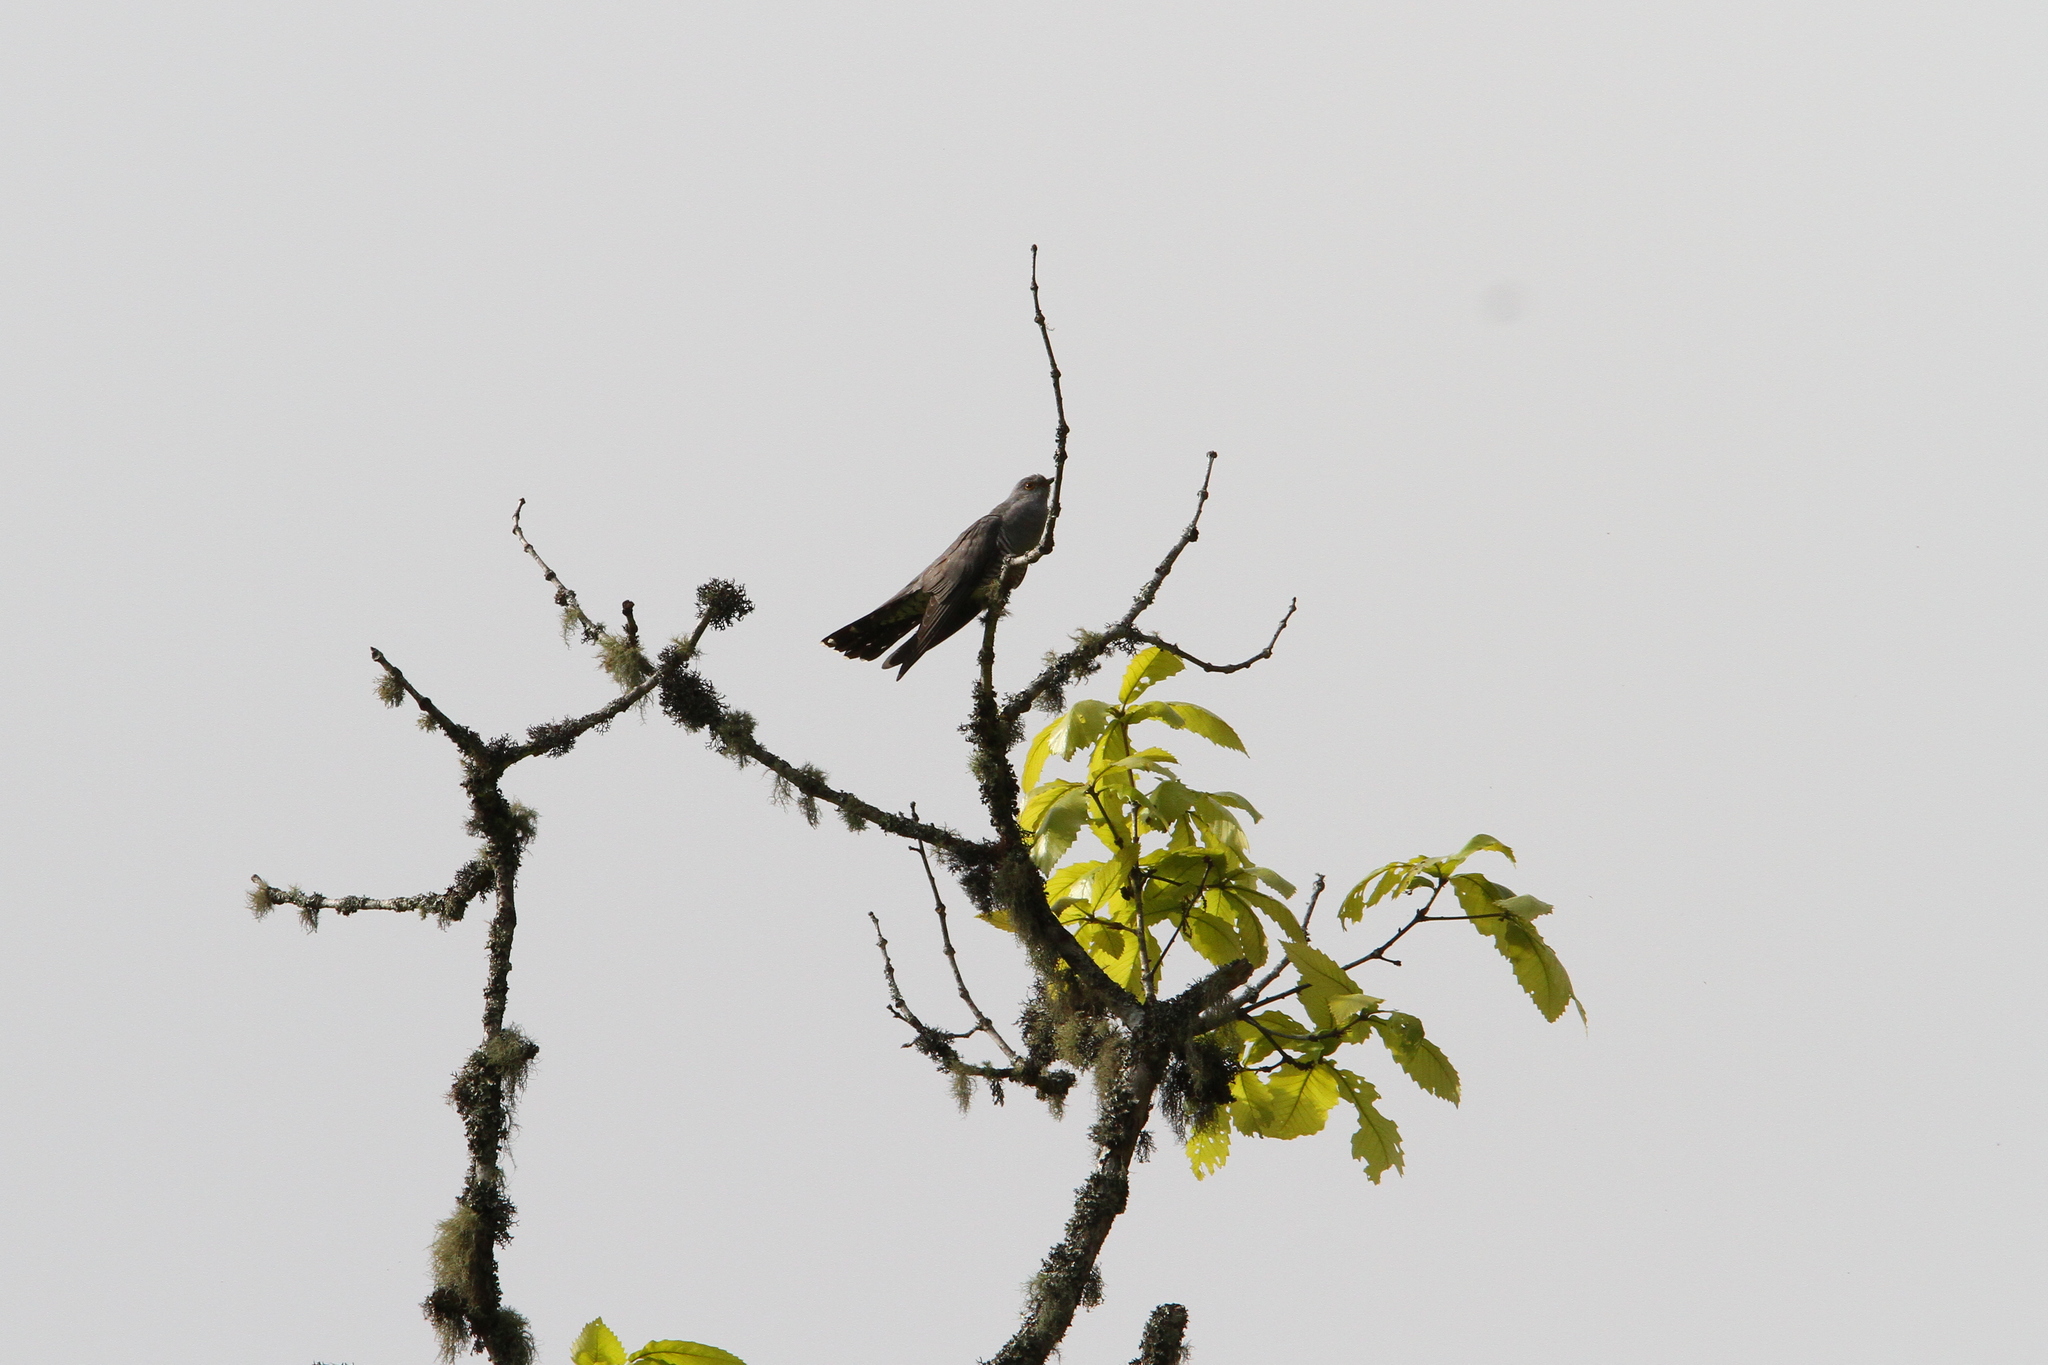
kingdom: Animalia
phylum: Chordata
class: Aves
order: Cuculiformes
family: Cuculidae
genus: Cuculus
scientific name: Cuculus canorus
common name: Common cuckoo
